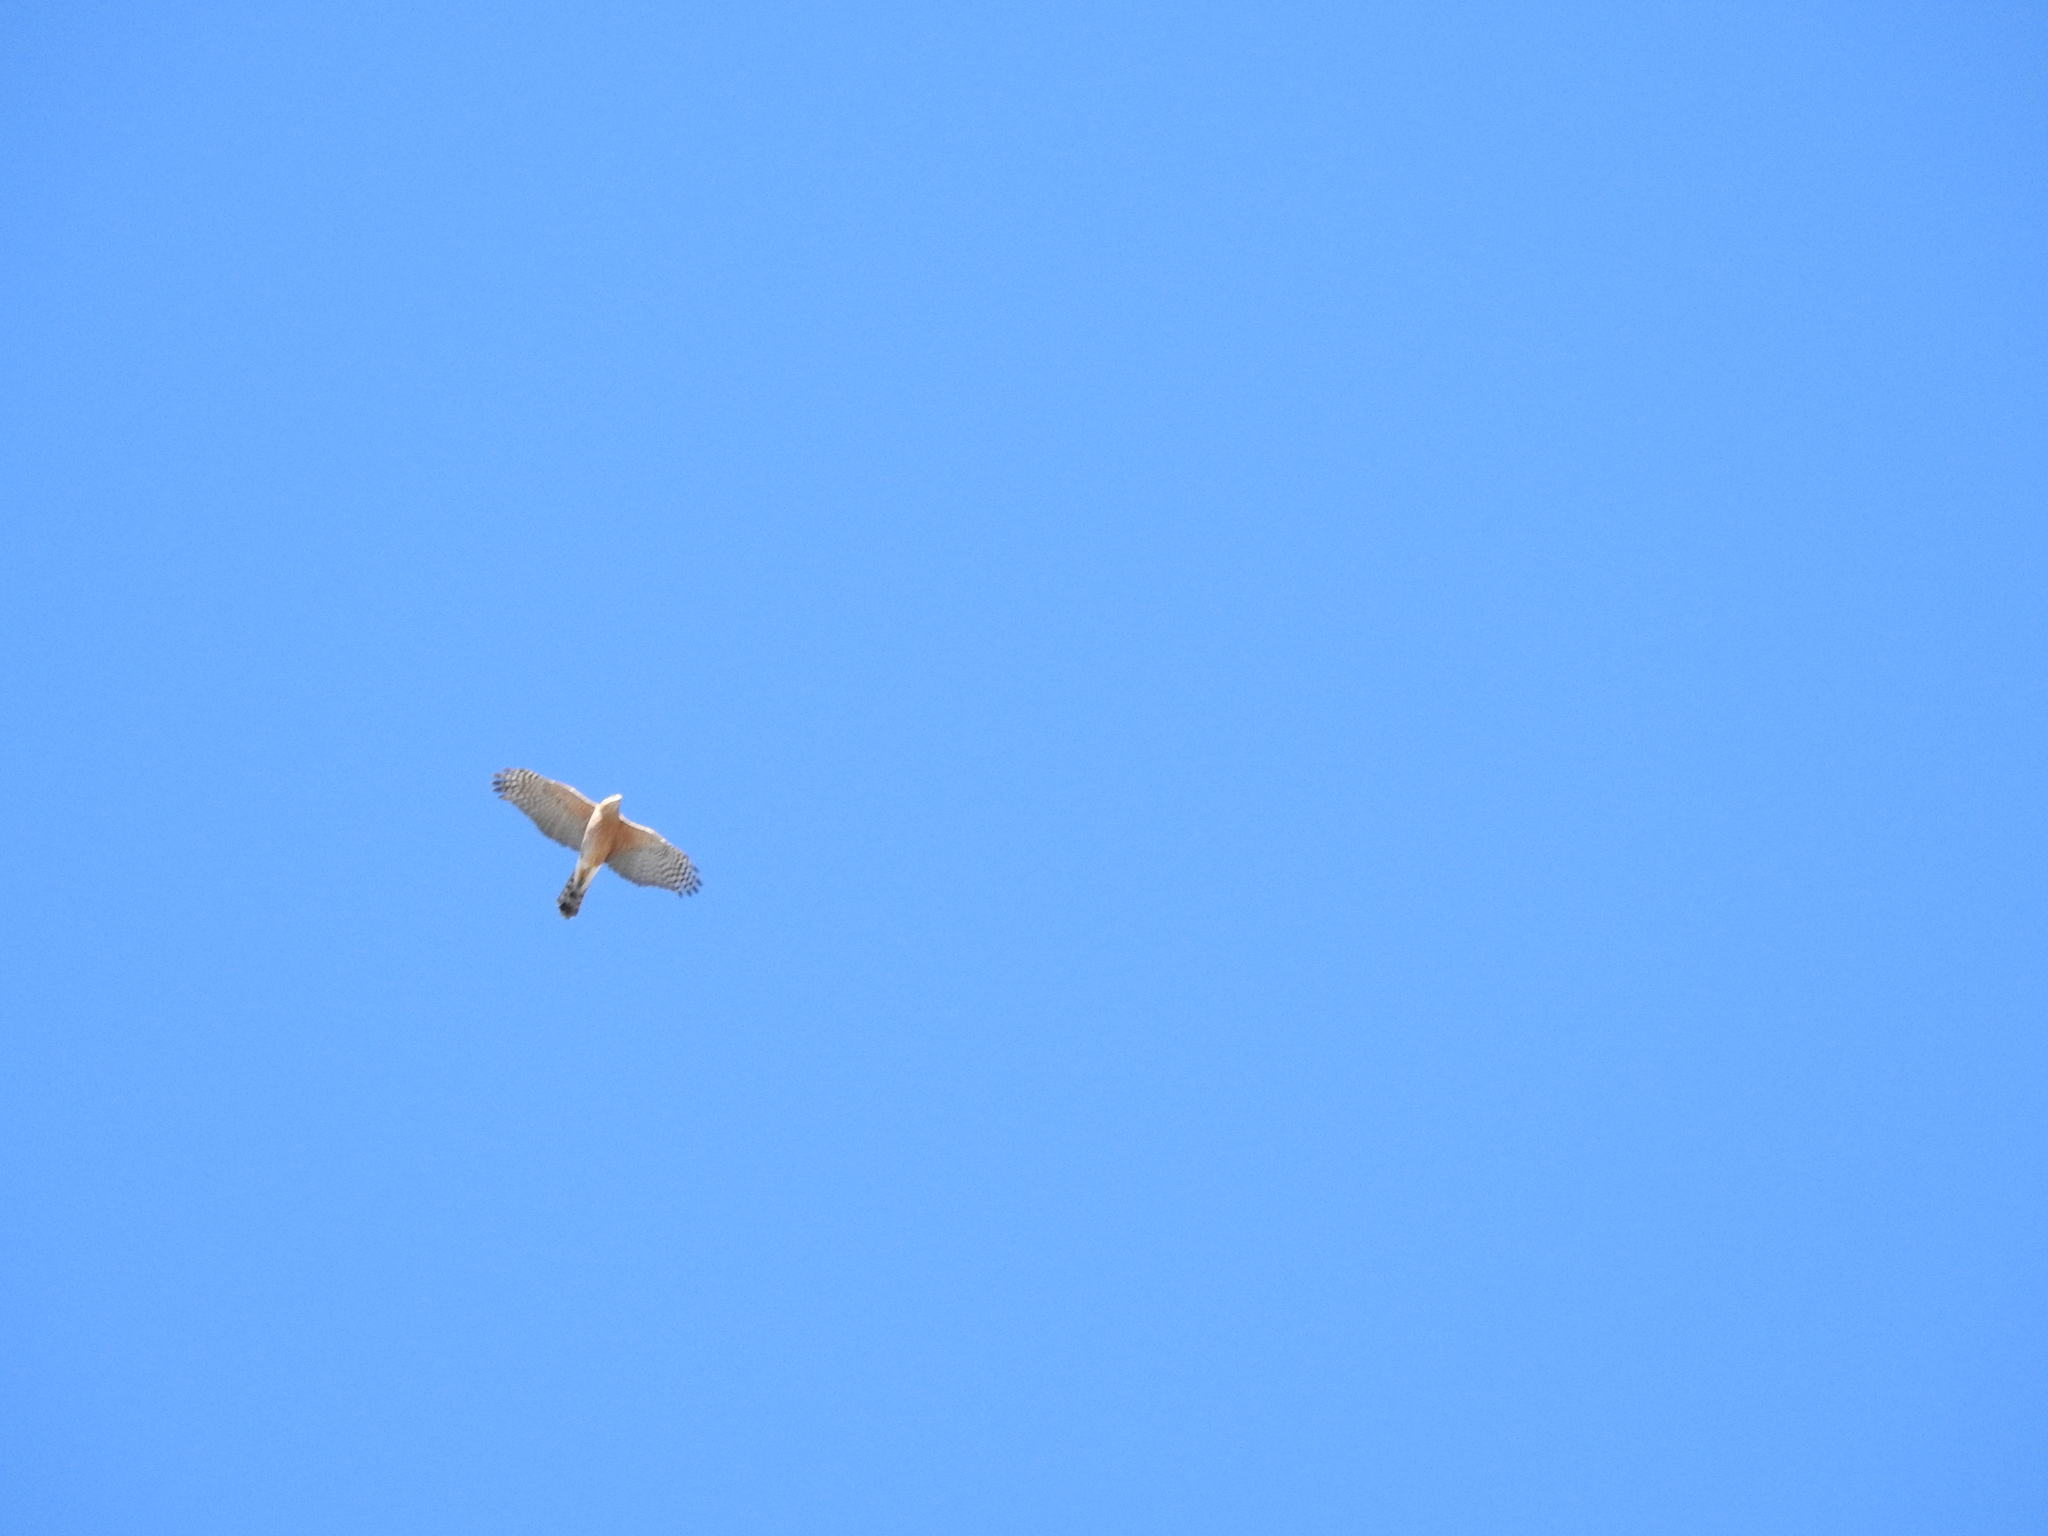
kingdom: Animalia
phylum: Chordata
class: Aves
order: Accipitriformes
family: Accipitridae
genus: Accipiter
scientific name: Accipiter cooperii
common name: Cooper's hawk
